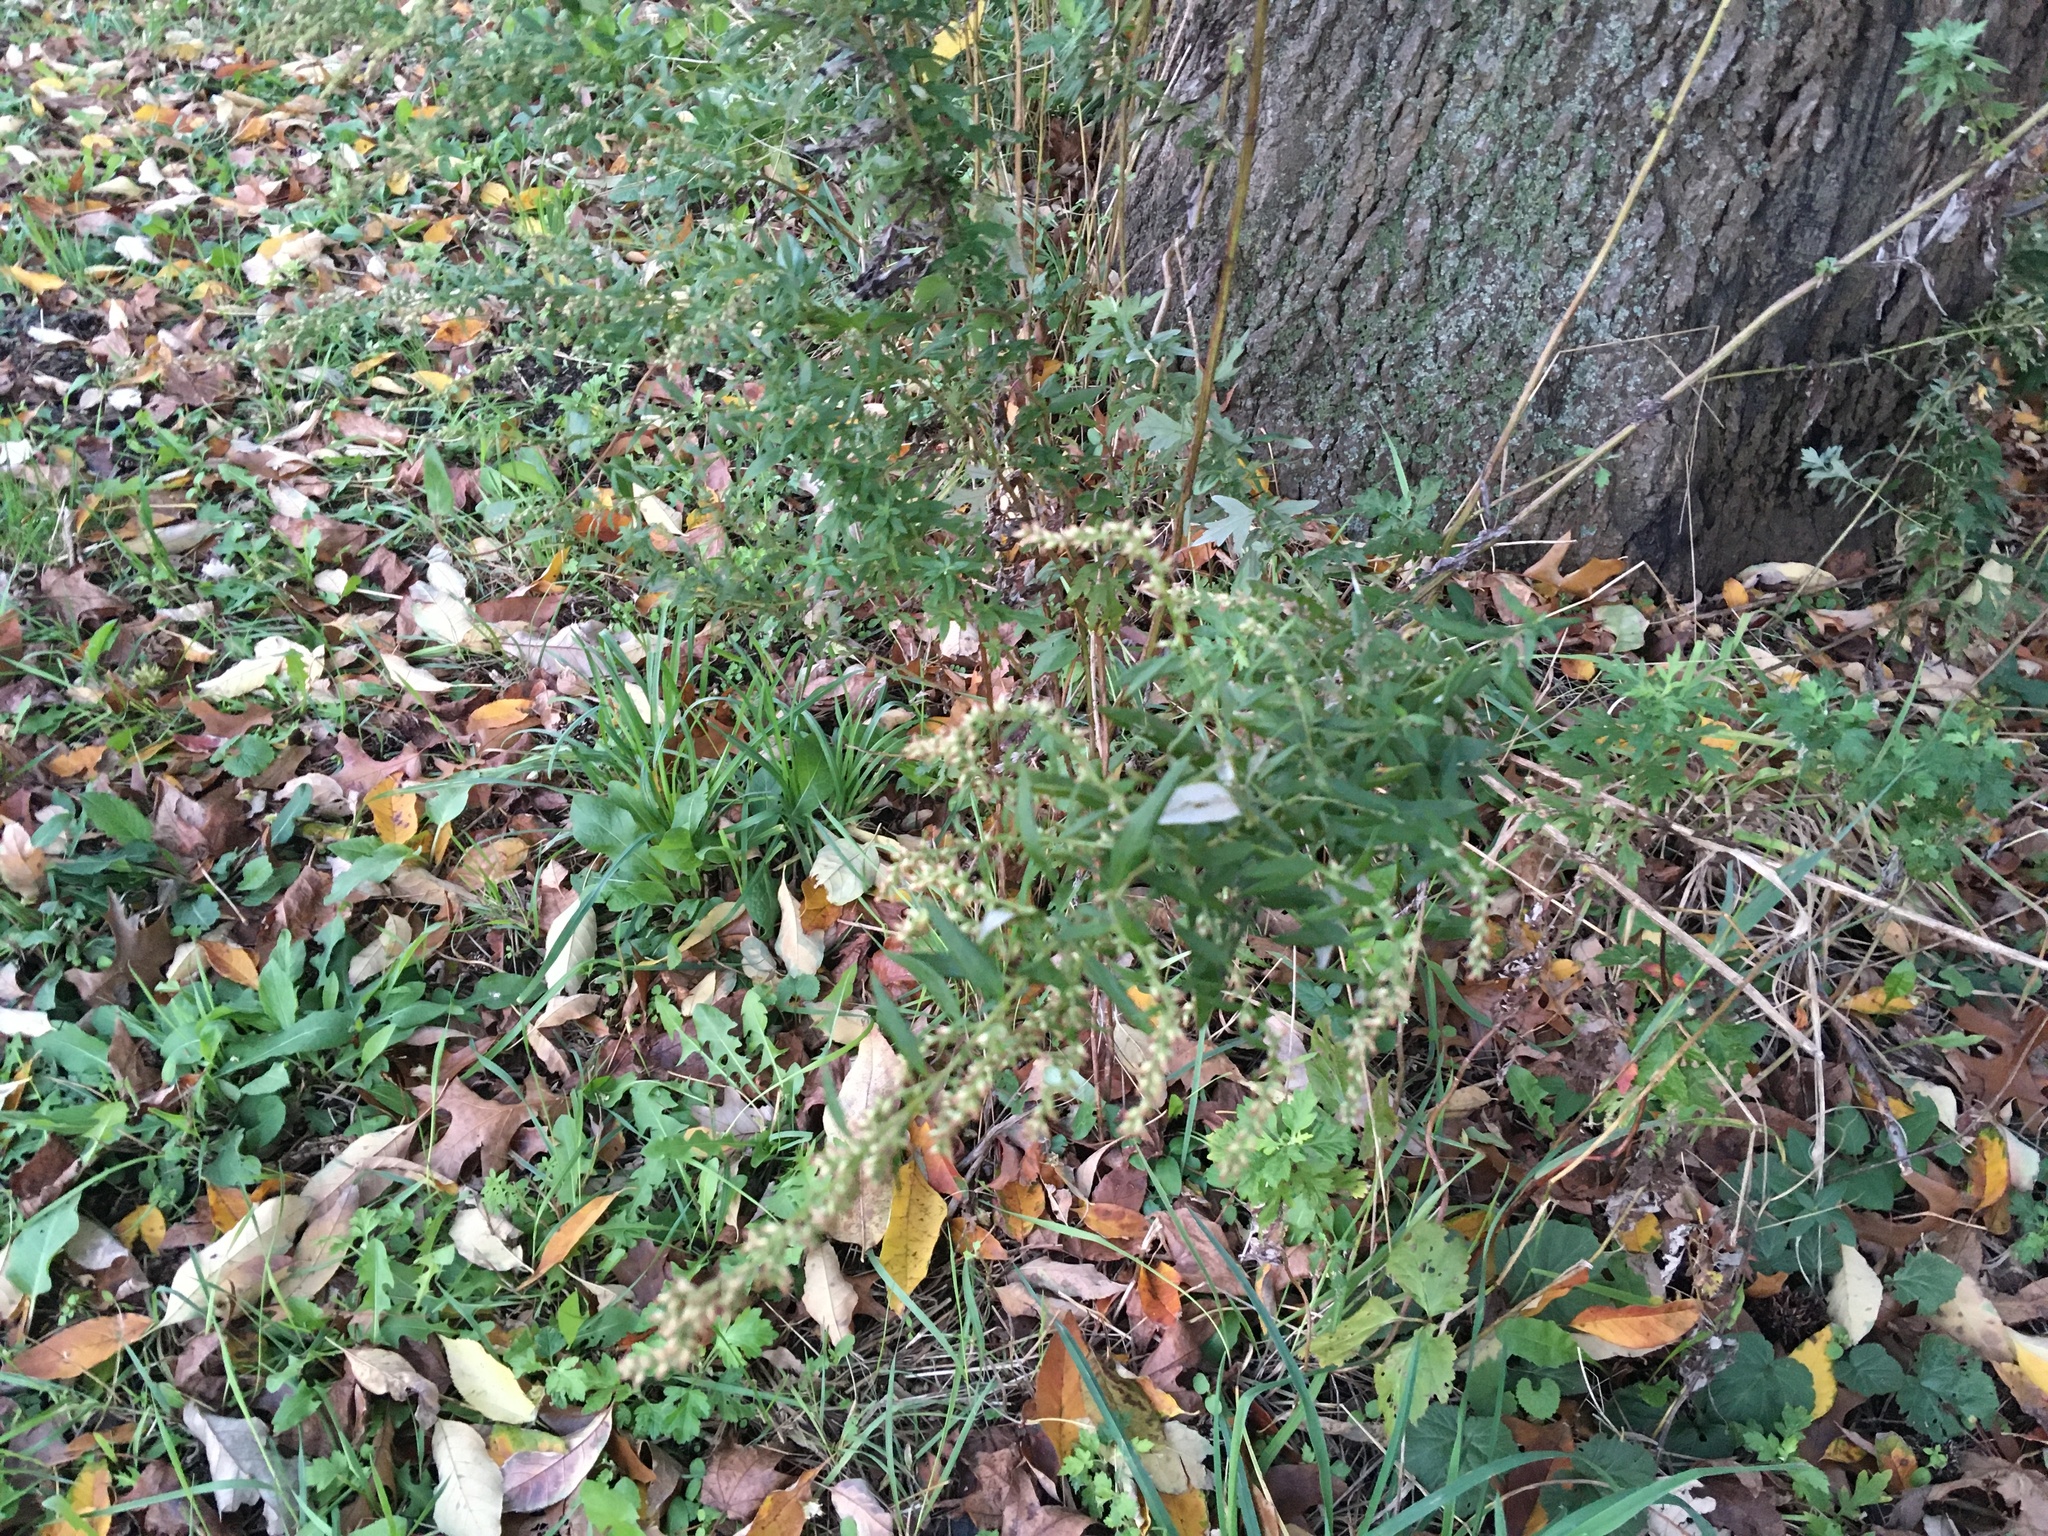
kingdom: Plantae
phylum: Tracheophyta
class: Magnoliopsida
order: Asterales
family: Asteraceae
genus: Artemisia
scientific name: Artemisia vulgaris
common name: Mugwort
